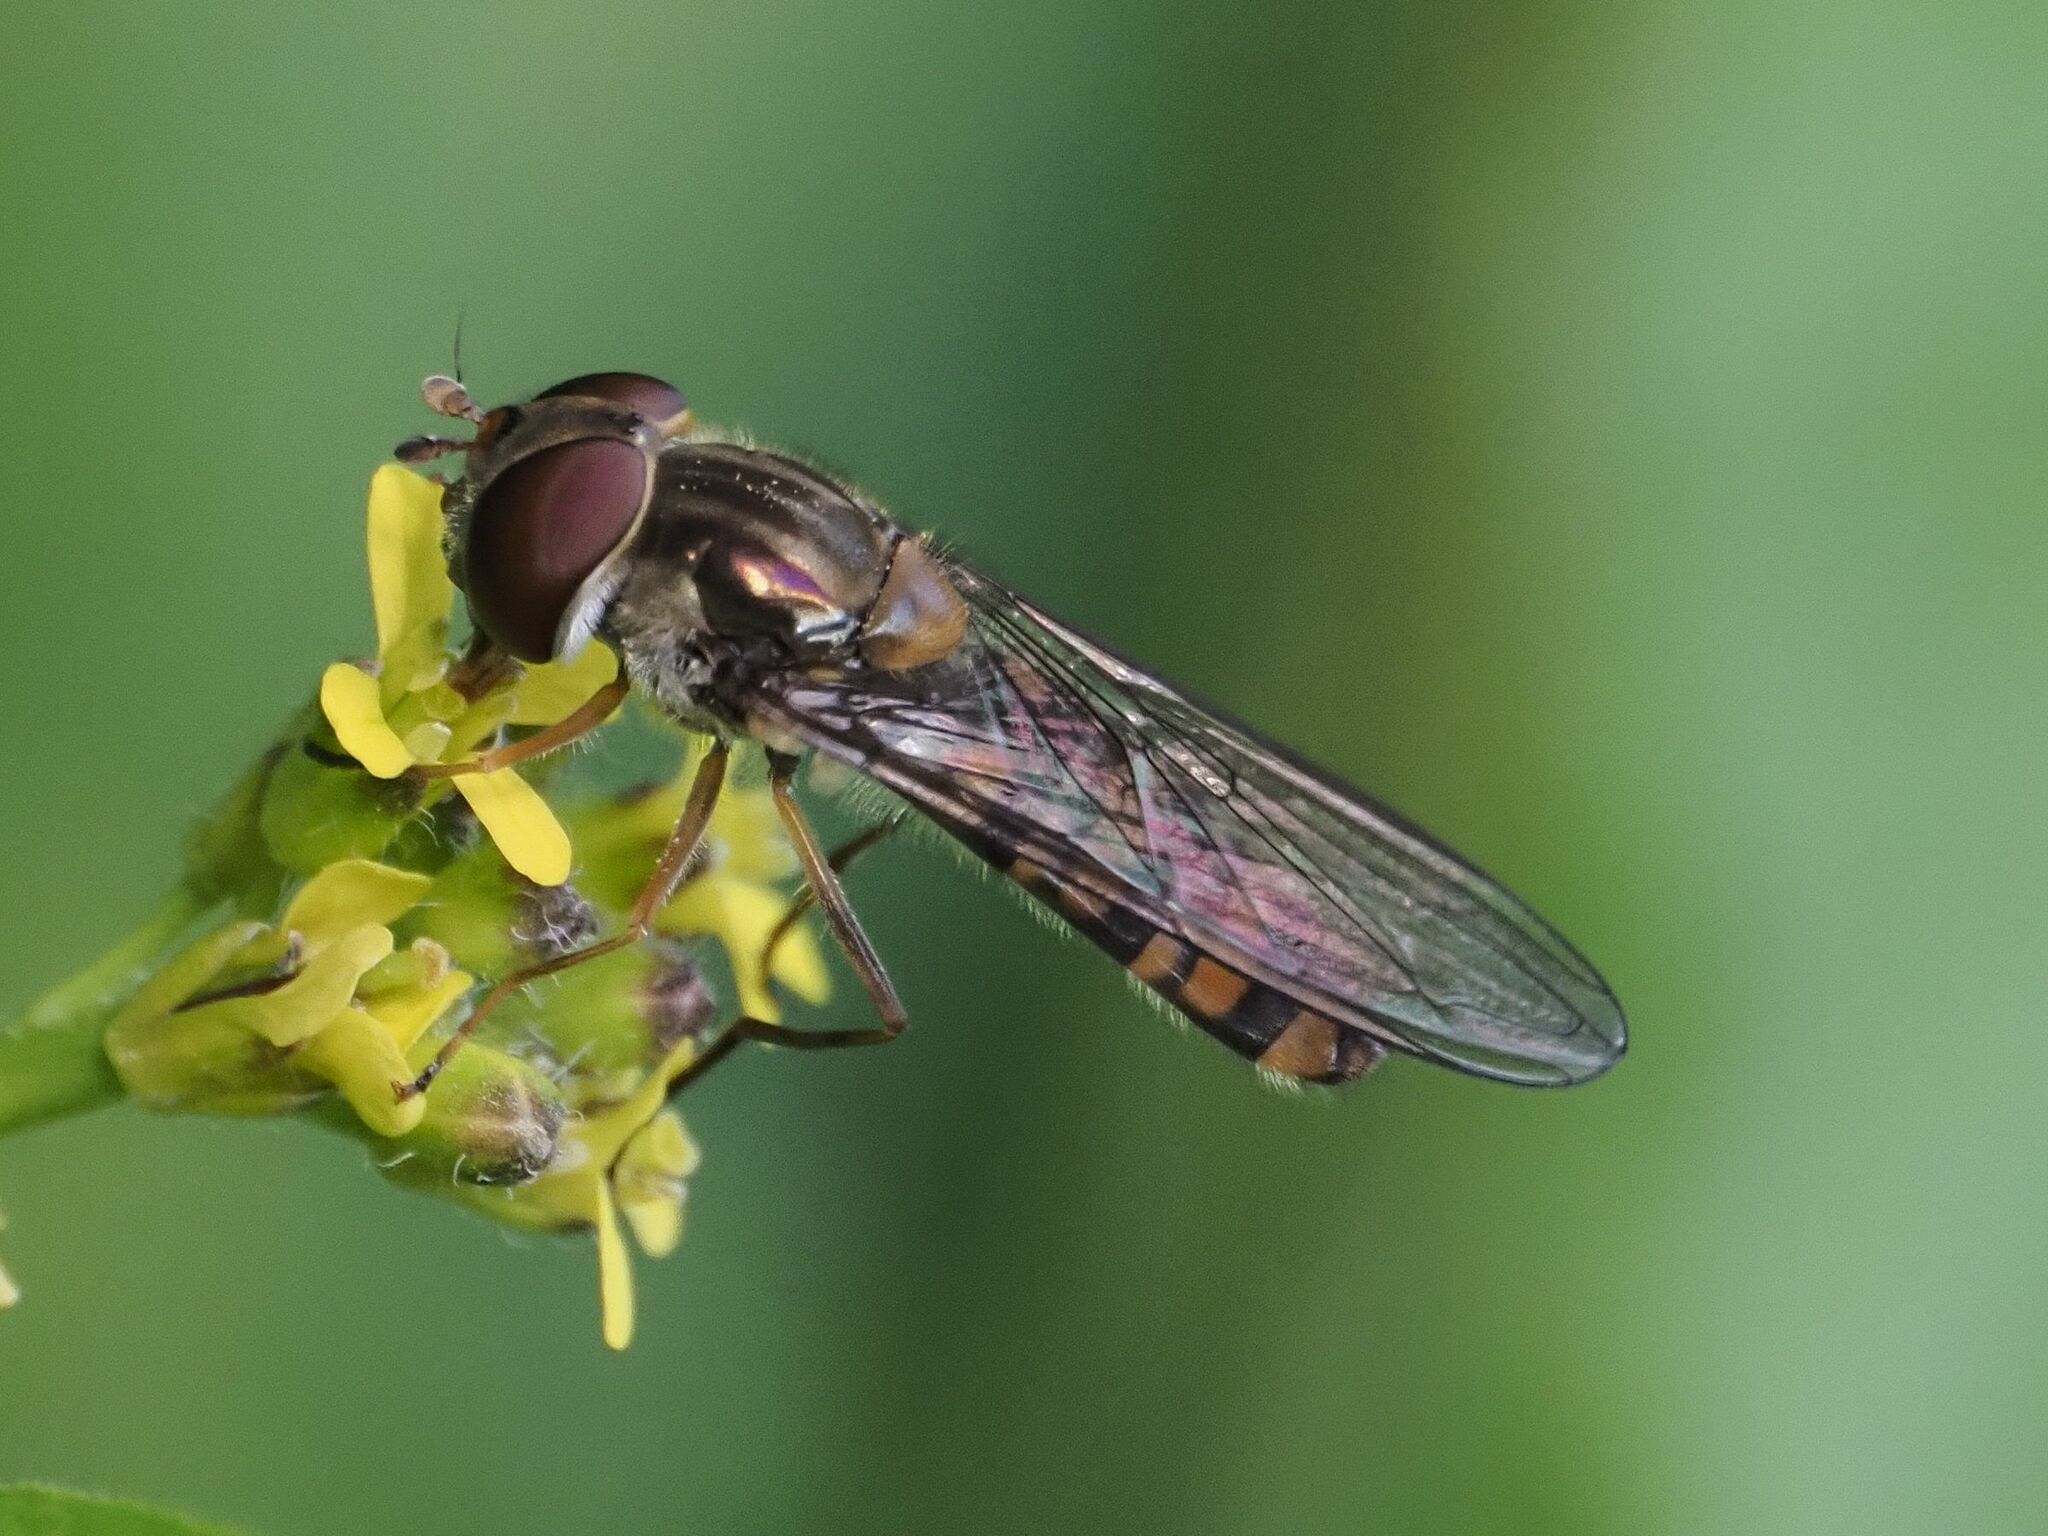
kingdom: Animalia
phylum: Arthropoda
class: Insecta
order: Diptera
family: Syrphidae
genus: Episyrphus
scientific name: Episyrphus balteatus
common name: Marmalade hoverfly
